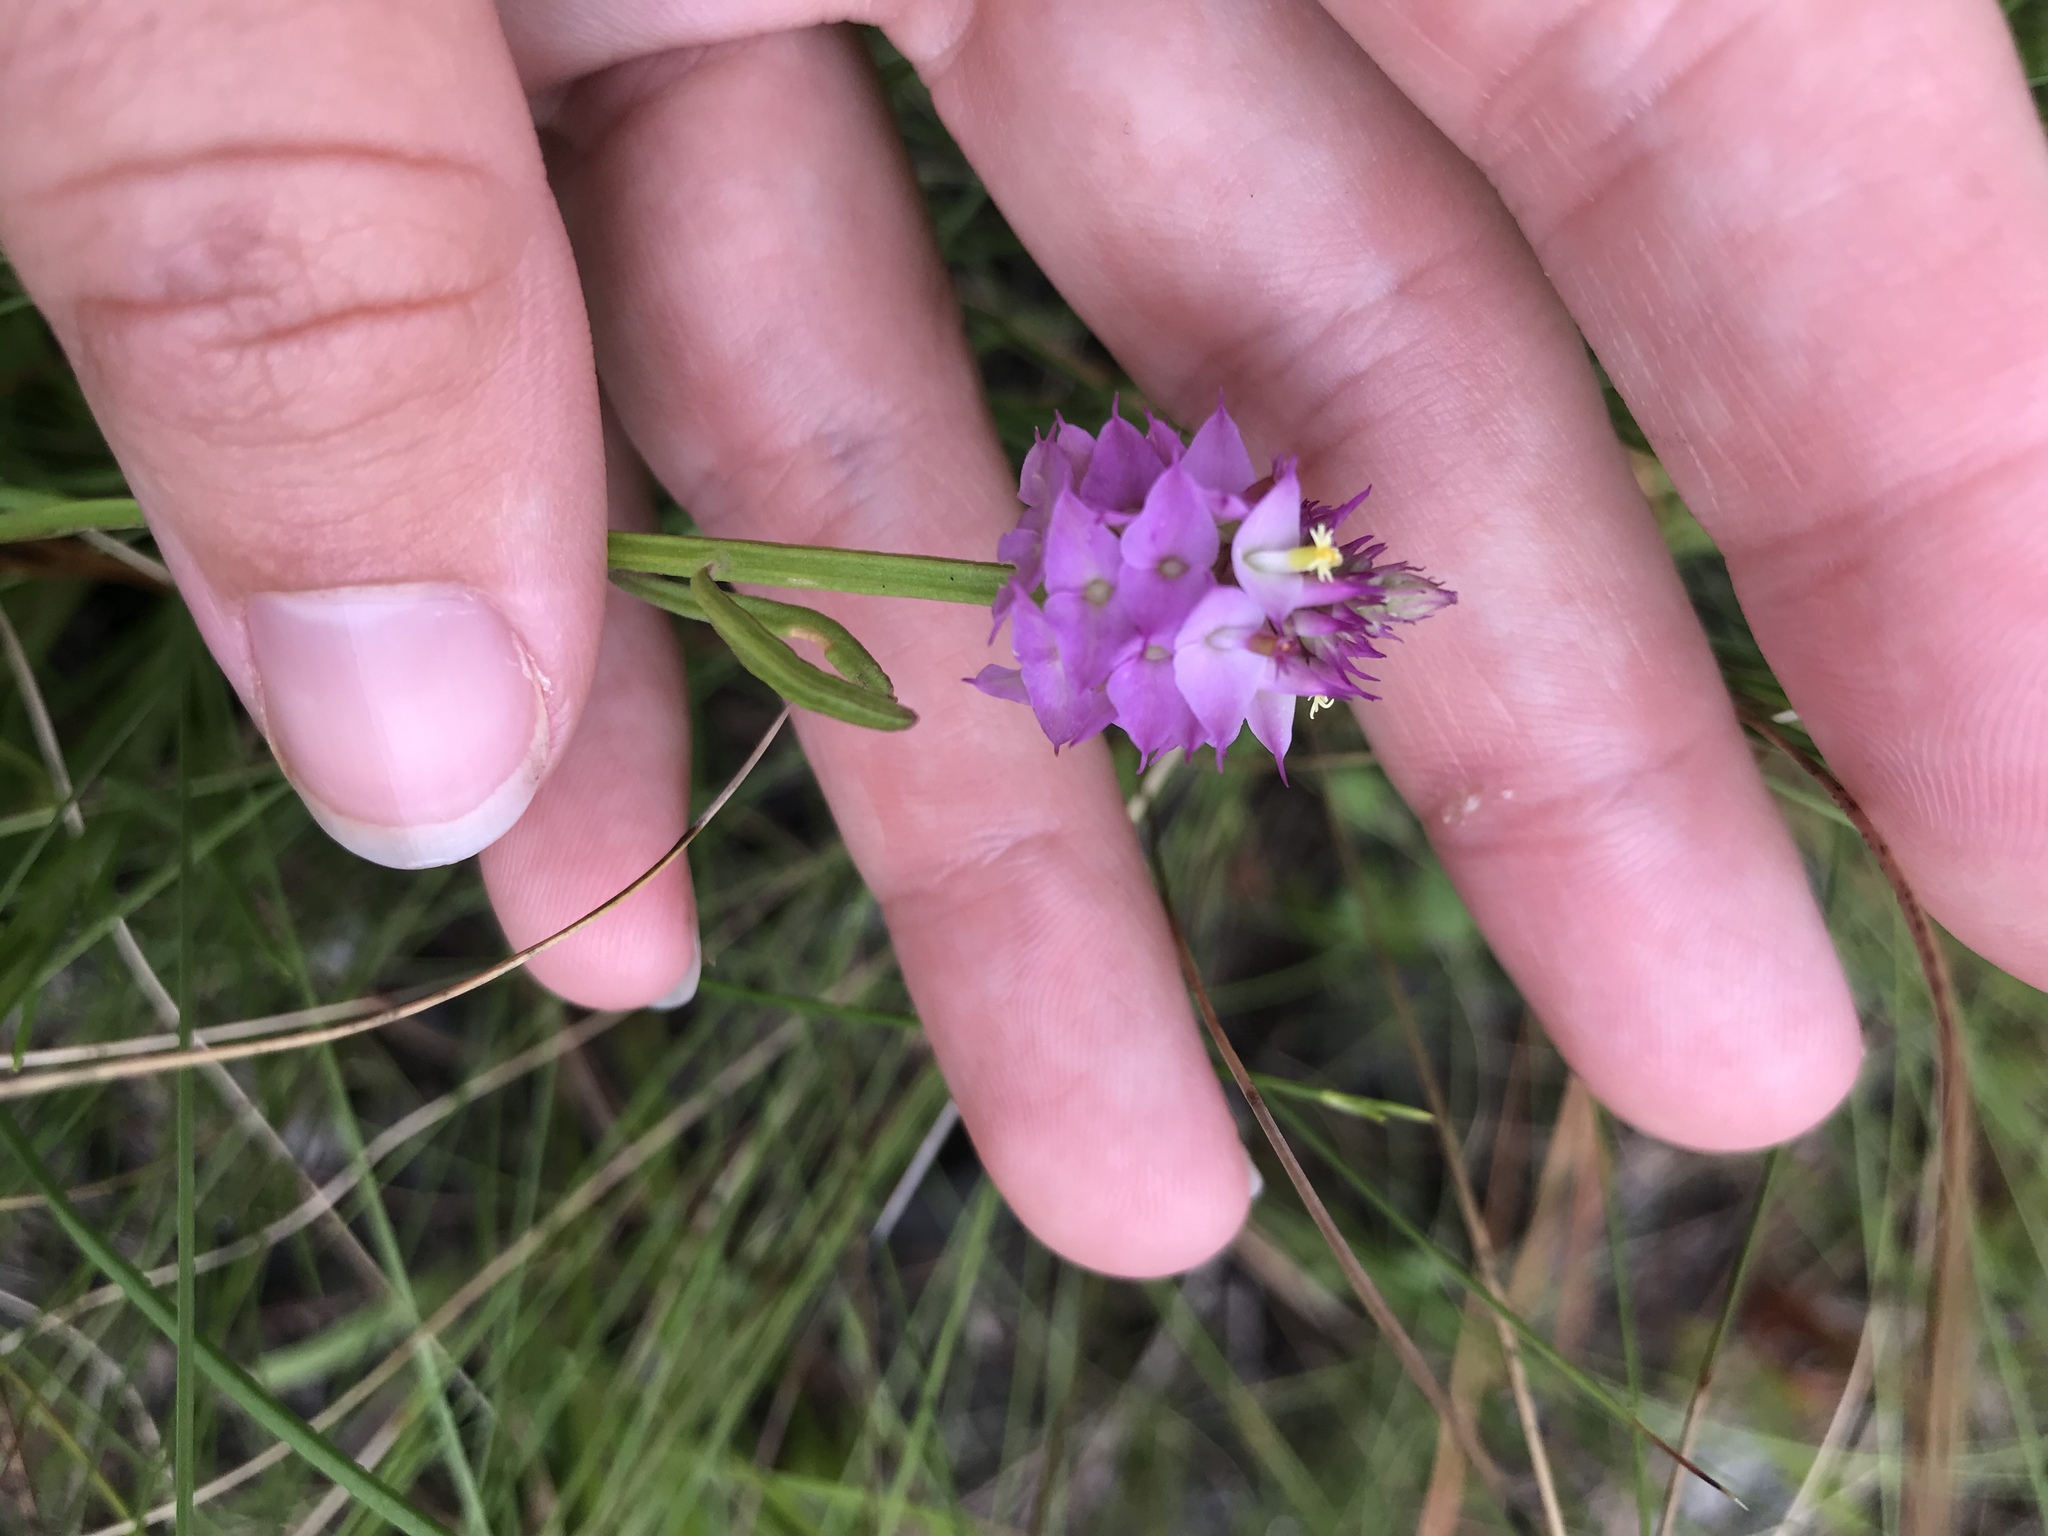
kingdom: Plantae
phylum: Tracheophyta
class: Magnoliopsida
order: Fabales
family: Polygalaceae
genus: Polygala
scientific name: Polygala cruciata
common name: Drumheads
